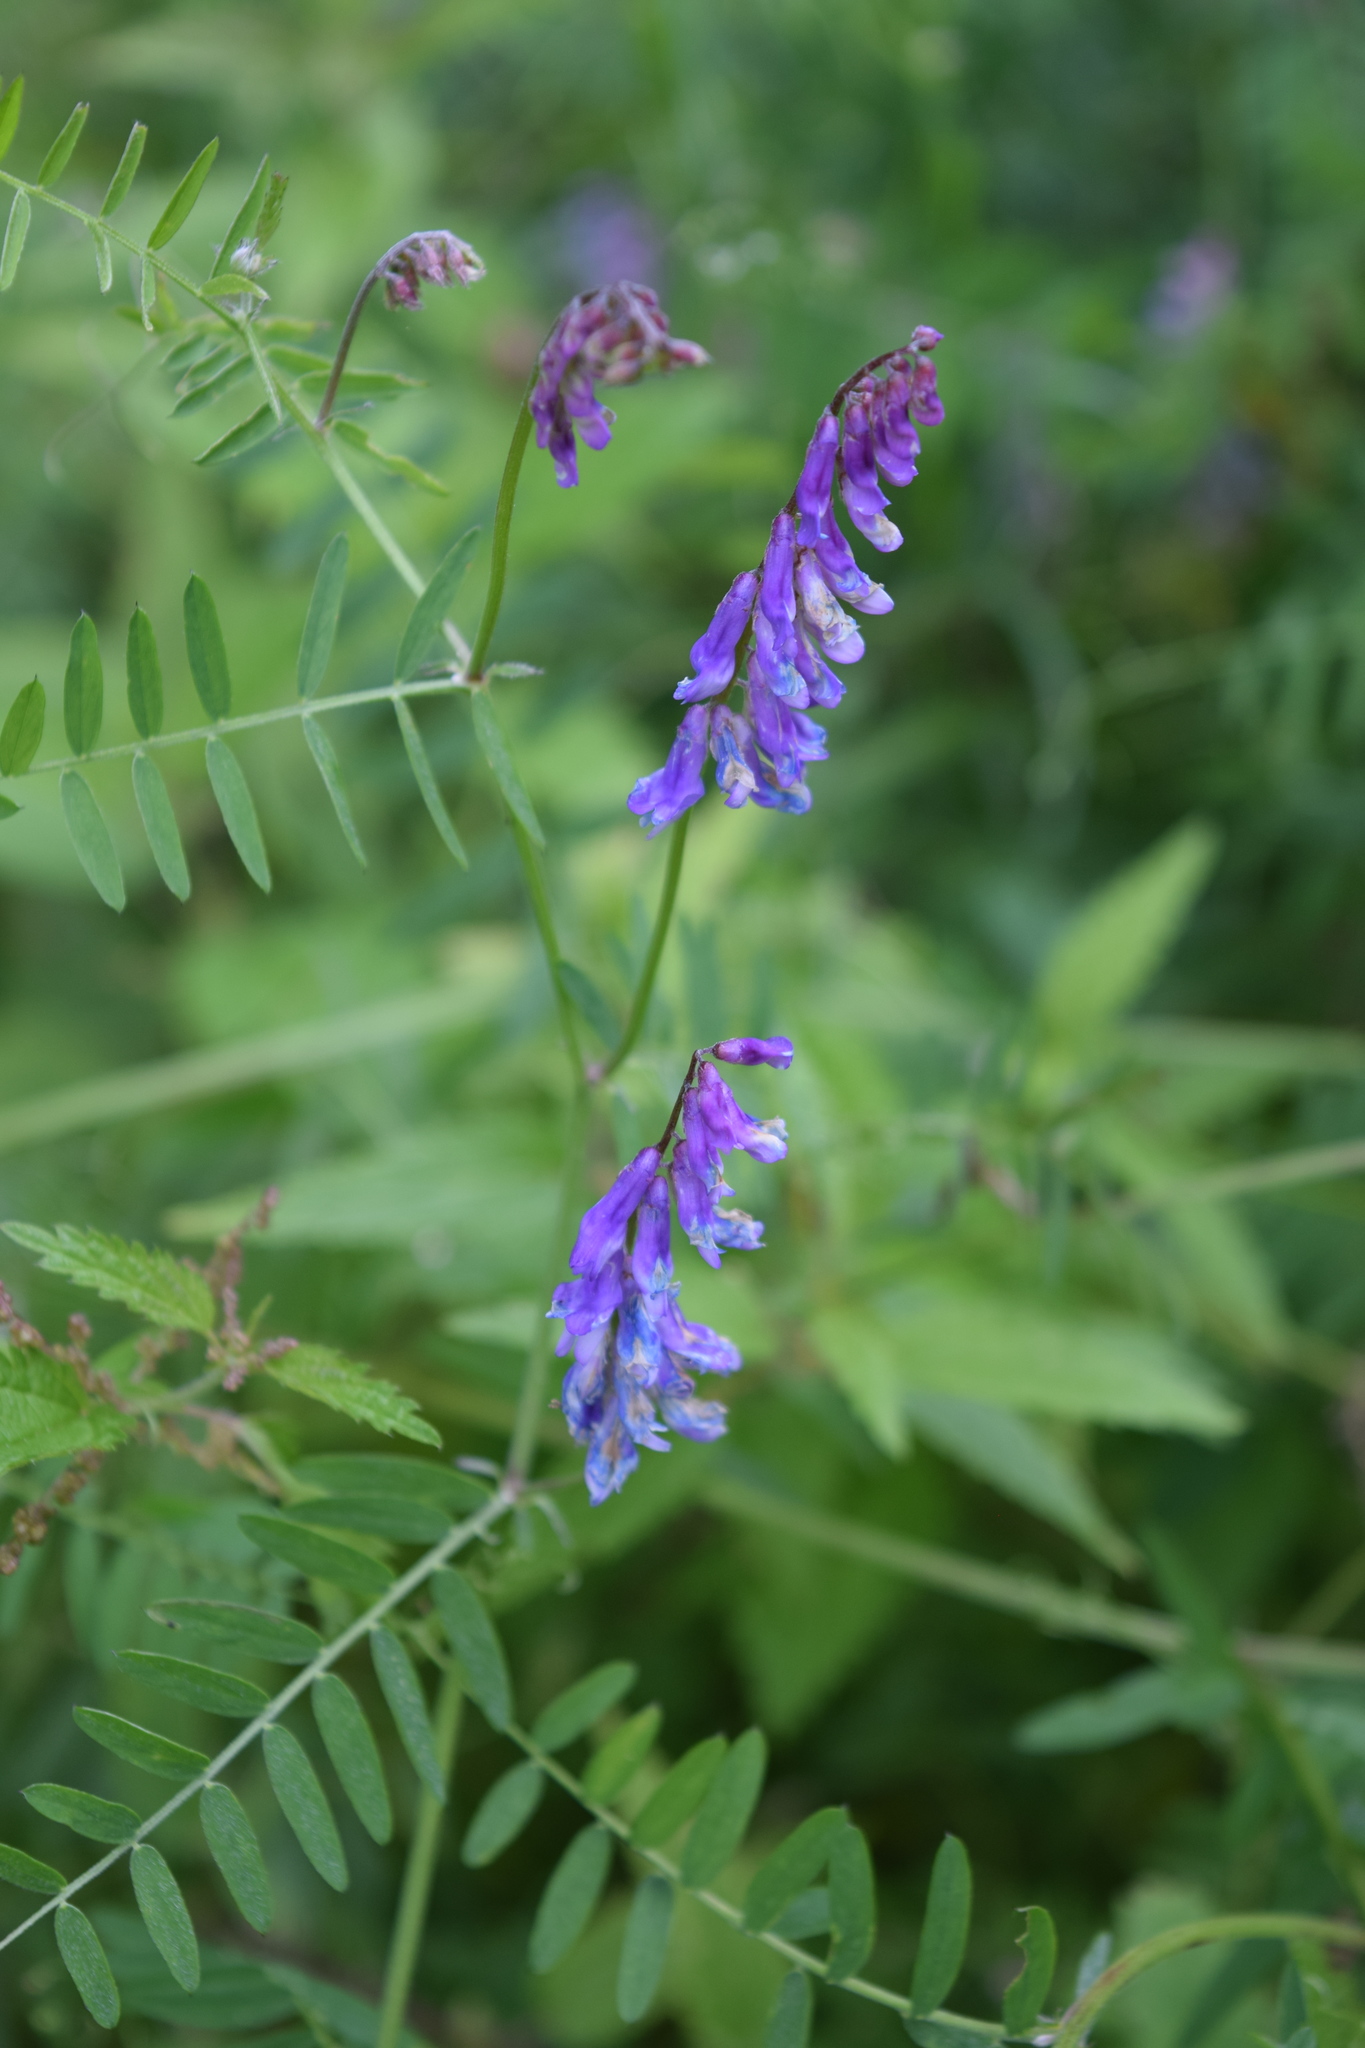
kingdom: Plantae
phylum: Tracheophyta
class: Magnoliopsida
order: Fabales
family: Fabaceae
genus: Vicia
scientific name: Vicia cracca
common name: Bird vetch
